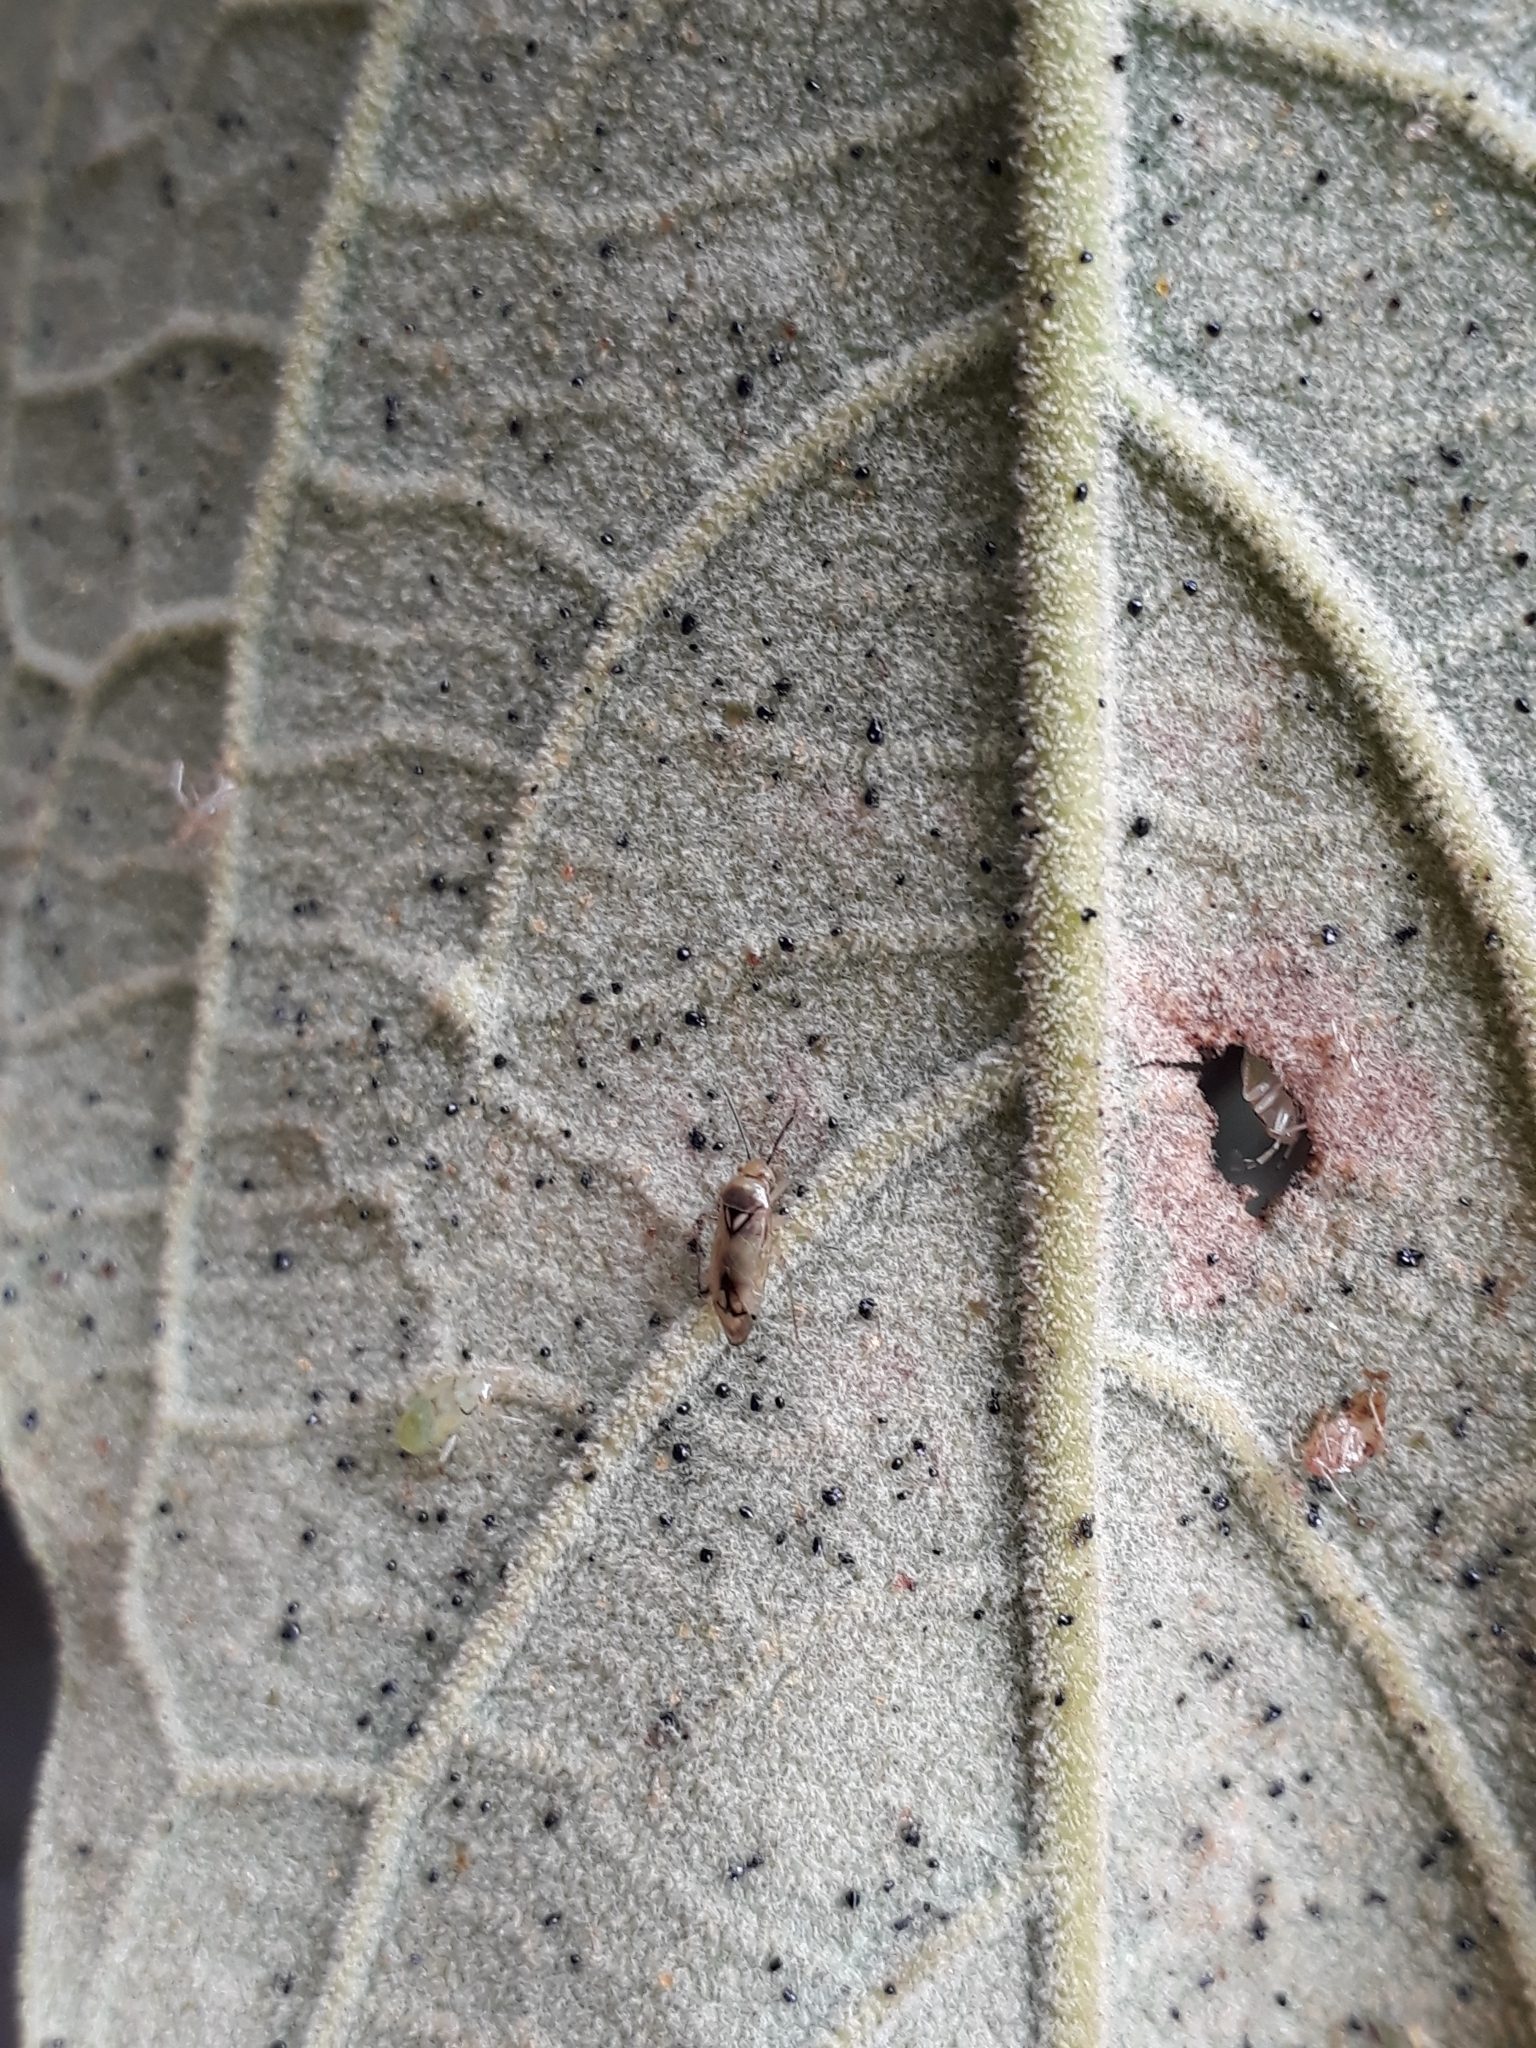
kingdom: Animalia
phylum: Arthropoda
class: Insecta
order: Hemiptera
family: Miridae
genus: Proba
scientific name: Proba vittiscutis
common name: Plant bug
